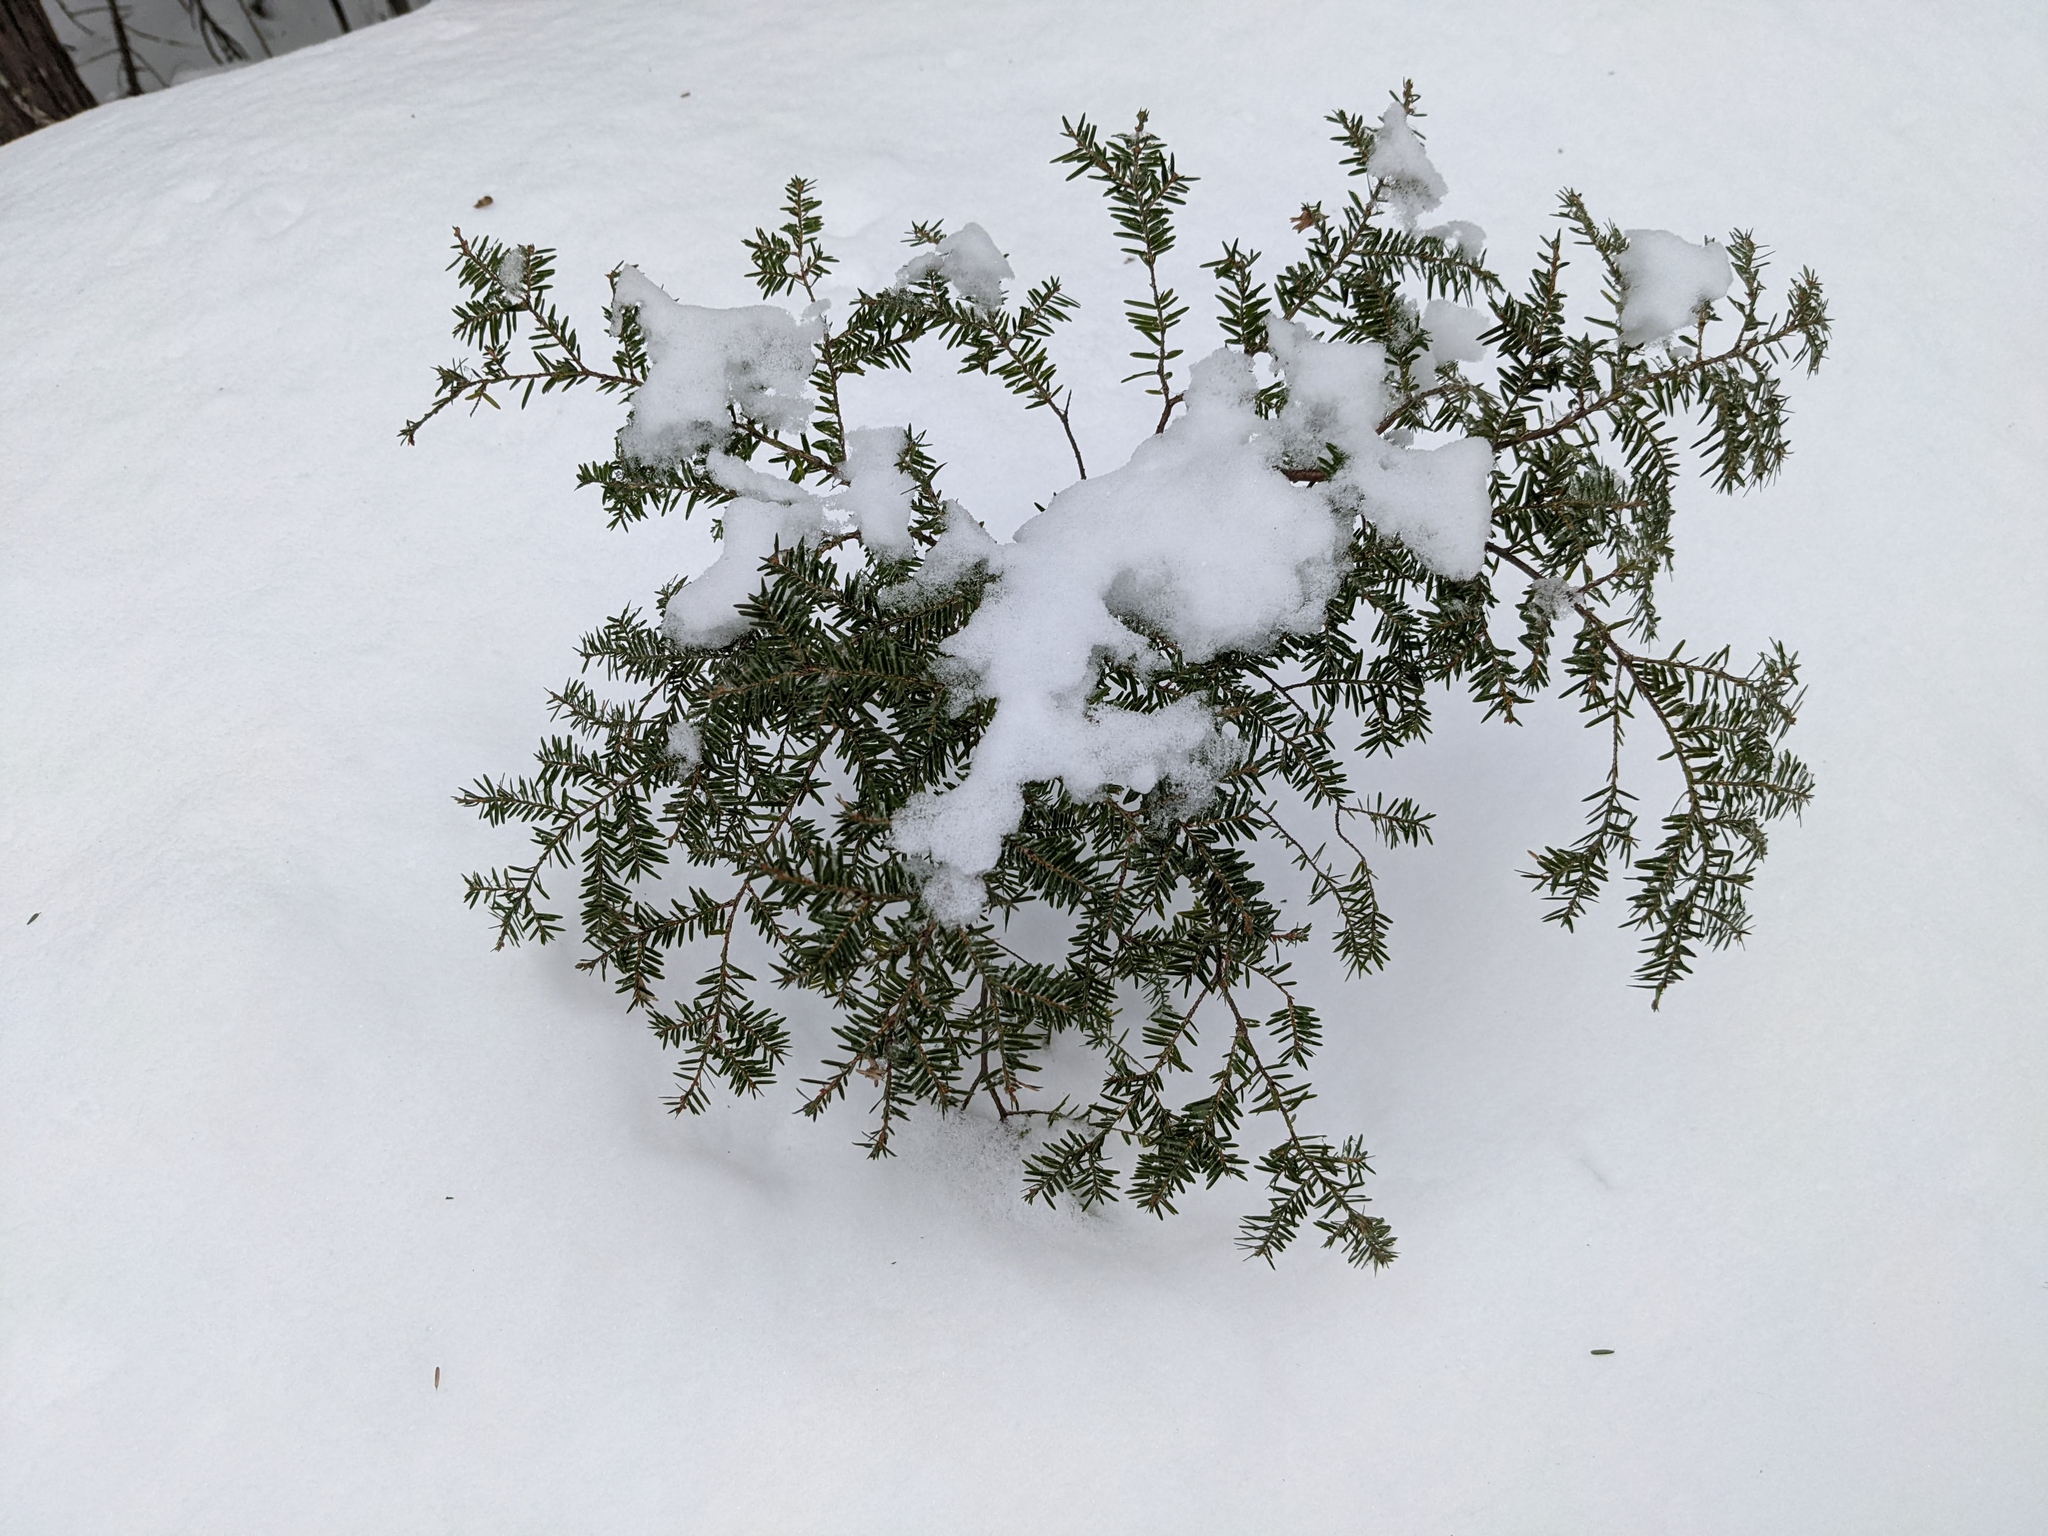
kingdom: Plantae
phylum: Tracheophyta
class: Pinopsida
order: Pinales
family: Pinaceae
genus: Tsuga
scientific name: Tsuga canadensis
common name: Eastern hemlock
